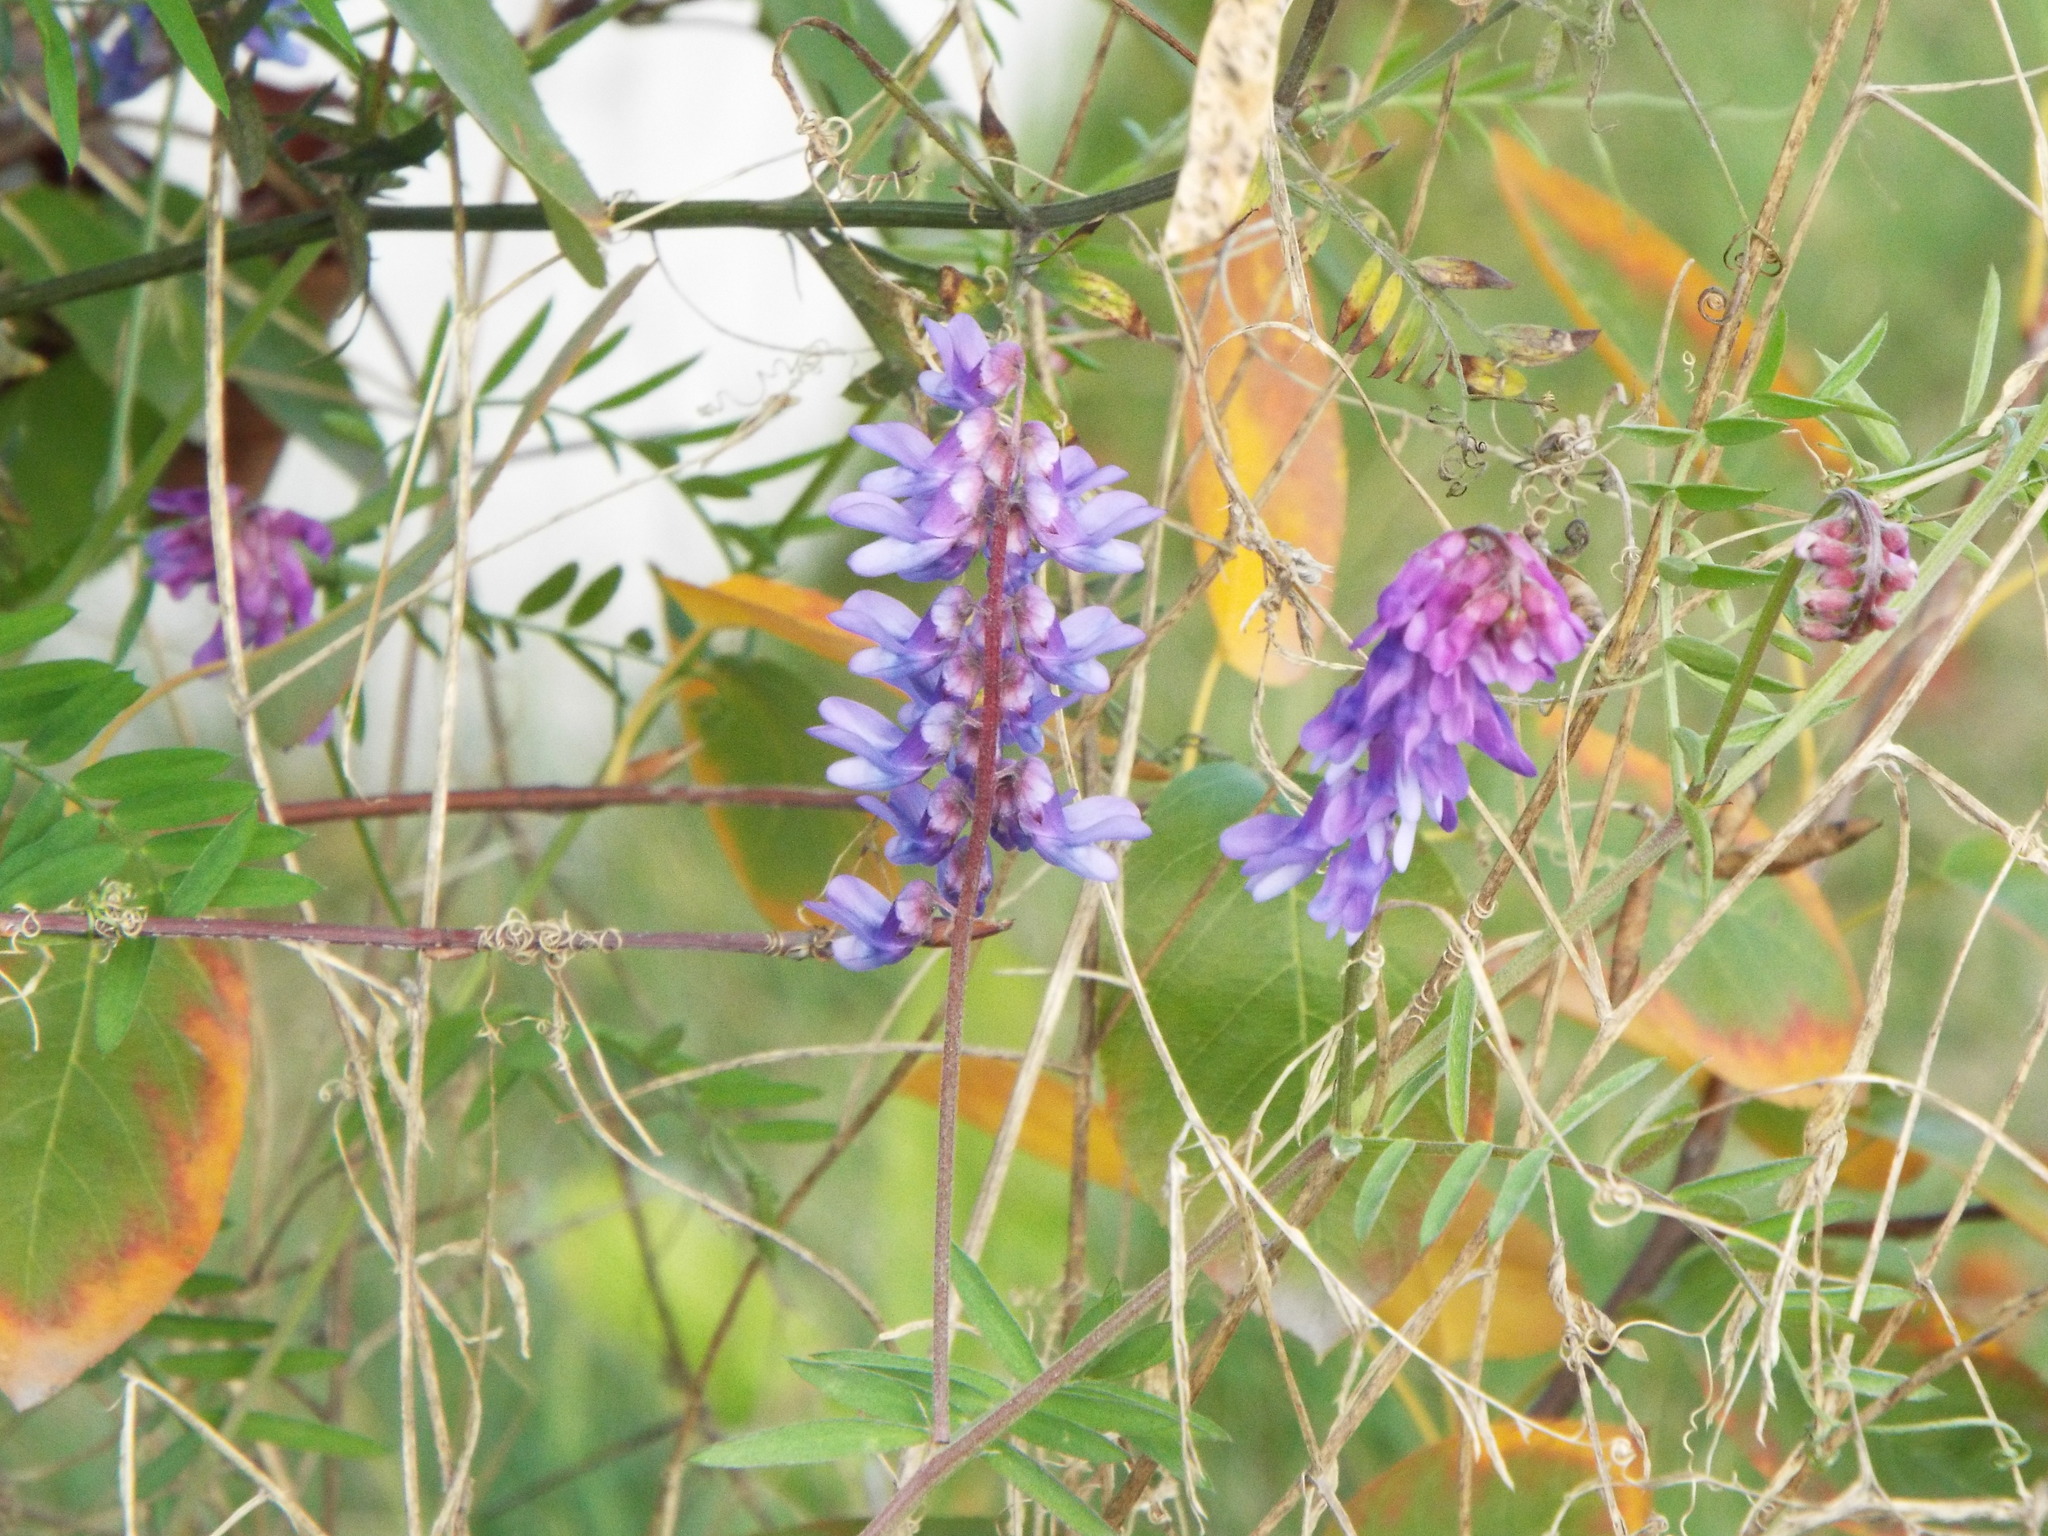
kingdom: Plantae
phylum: Tracheophyta
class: Magnoliopsida
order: Fabales
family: Fabaceae
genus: Vicia
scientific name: Vicia cracca
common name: Bird vetch
